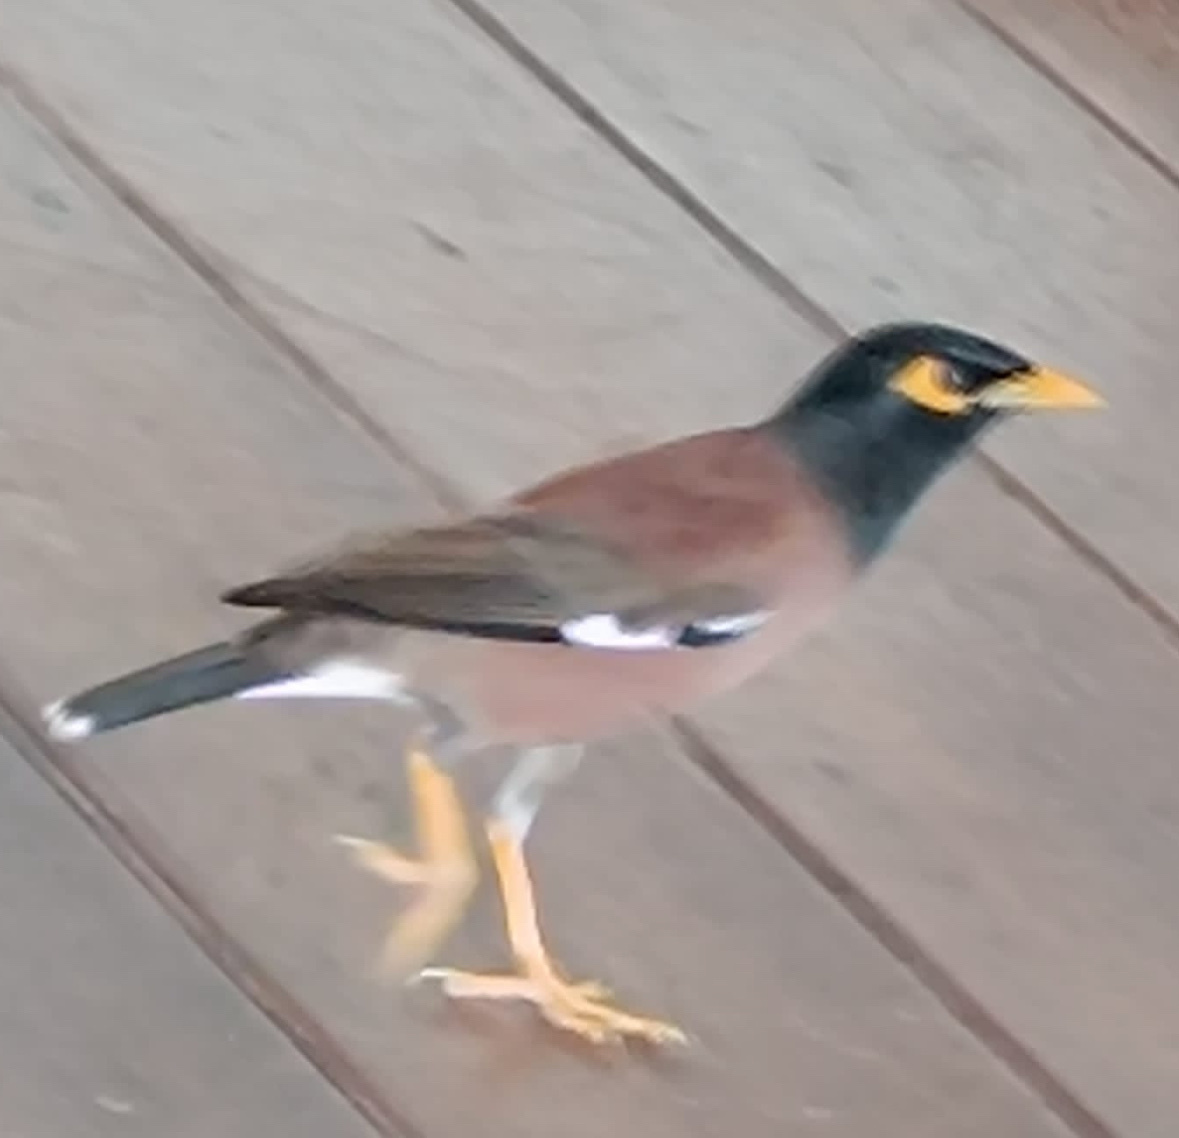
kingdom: Animalia
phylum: Chordata
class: Aves
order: Passeriformes
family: Sturnidae
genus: Acridotheres
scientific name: Acridotheres tristis
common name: Common myna
